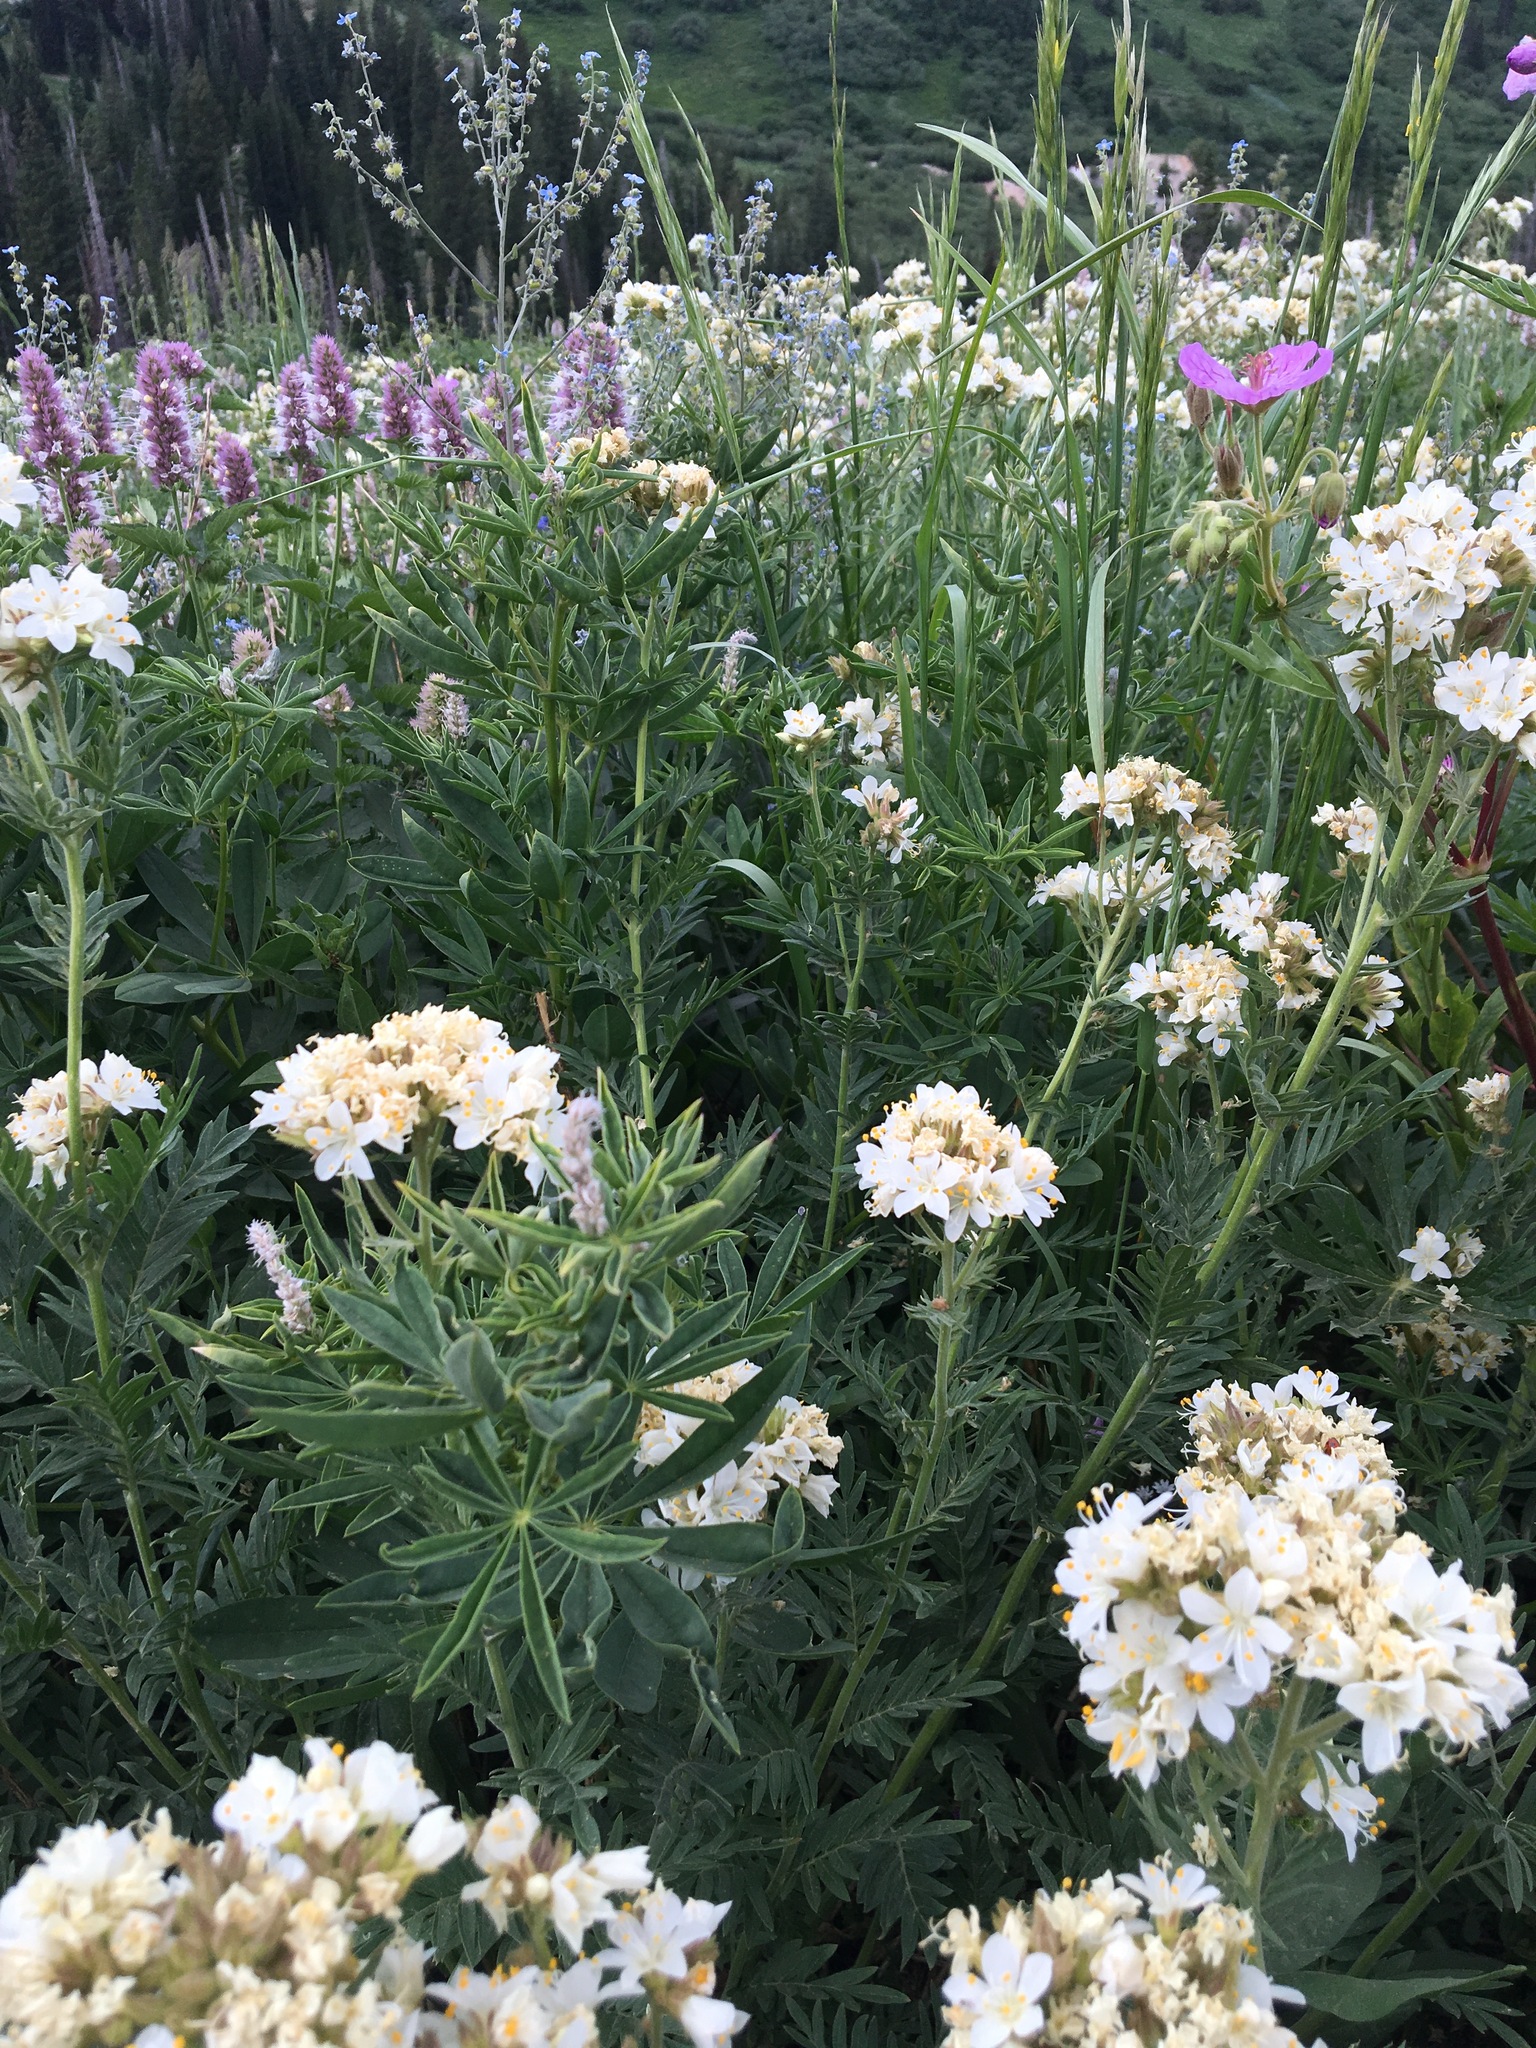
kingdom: Plantae
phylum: Tracheophyta
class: Magnoliopsida
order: Ericales
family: Polemoniaceae
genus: Polemonium
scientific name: Polemonium foliosissimum
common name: Leafy jacob's-ladder
